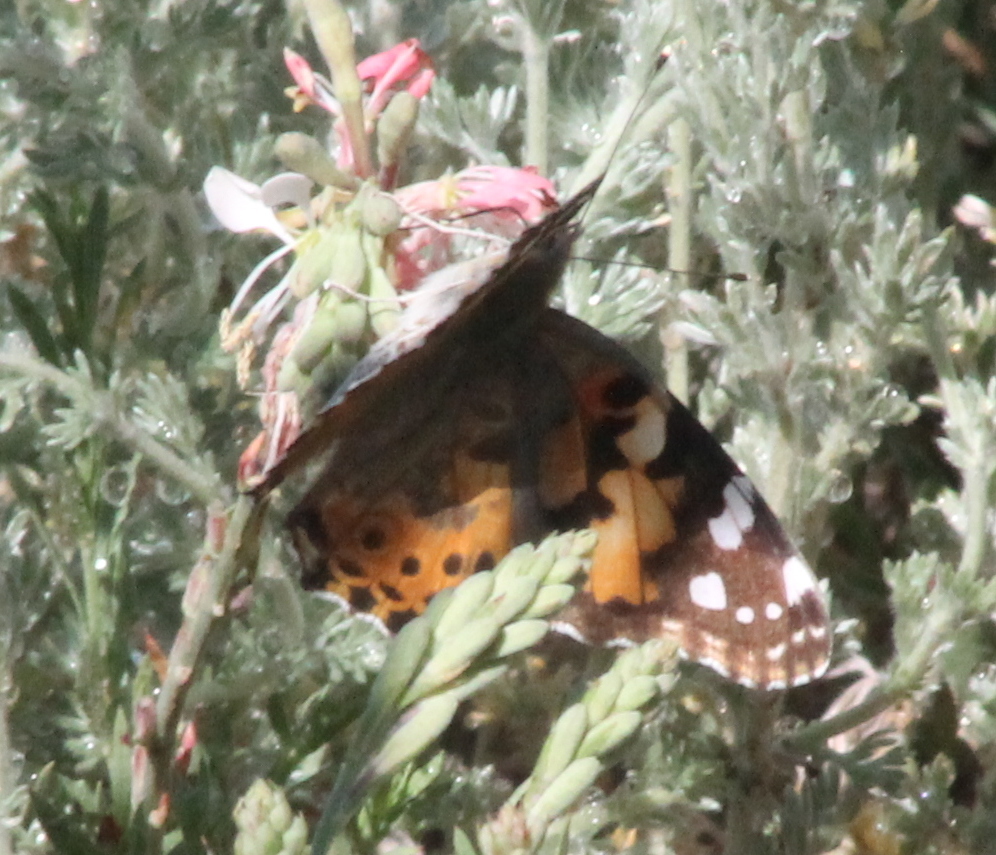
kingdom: Animalia
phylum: Arthropoda
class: Insecta
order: Lepidoptera
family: Nymphalidae
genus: Vanessa
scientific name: Vanessa cardui
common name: Painted lady
